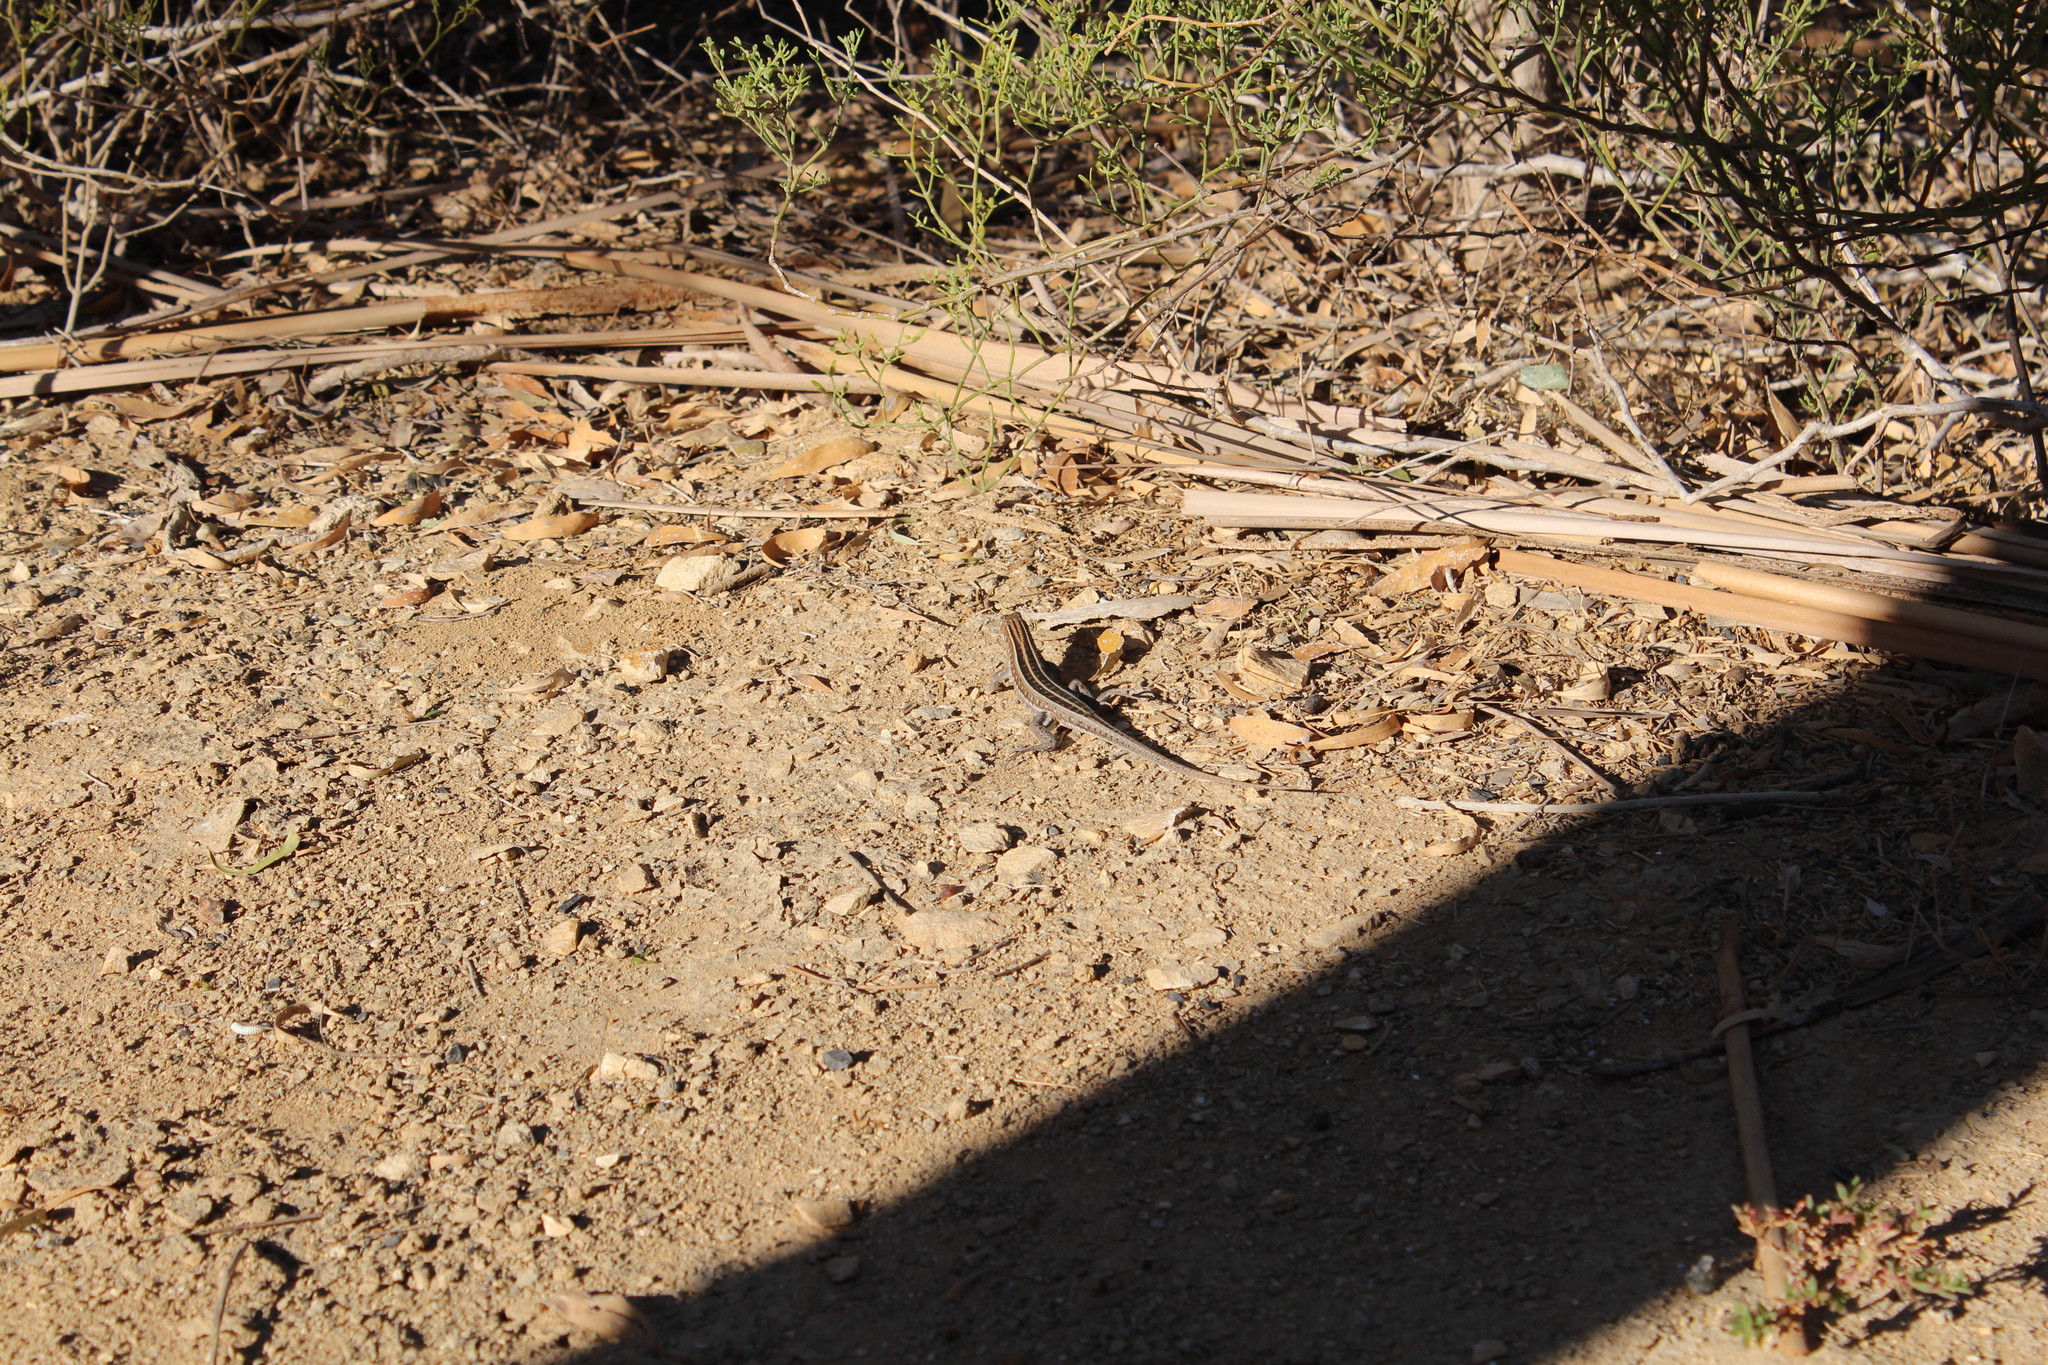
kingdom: Animalia
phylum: Chordata
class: Squamata
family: Gerrhosauridae
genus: Tracheloptychus
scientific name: Tracheloptychus madagascariensis
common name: Madagascar girdled lizard
